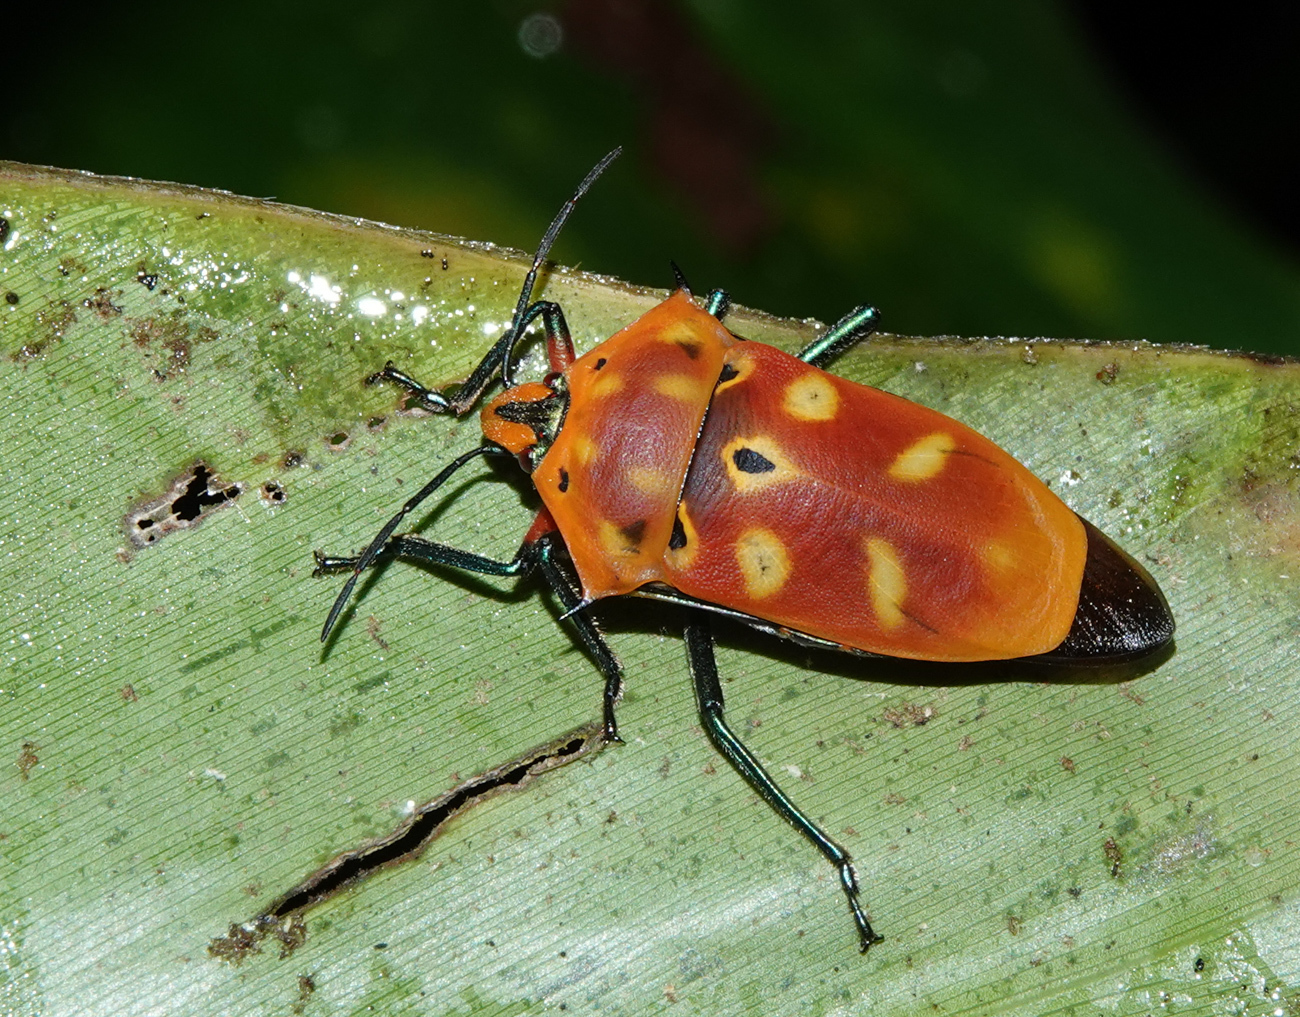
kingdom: Animalia
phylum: Arthropoda
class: Insecta
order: Hemiptera
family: Scutelleridae
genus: Cantao
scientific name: Cantao ocellatus
